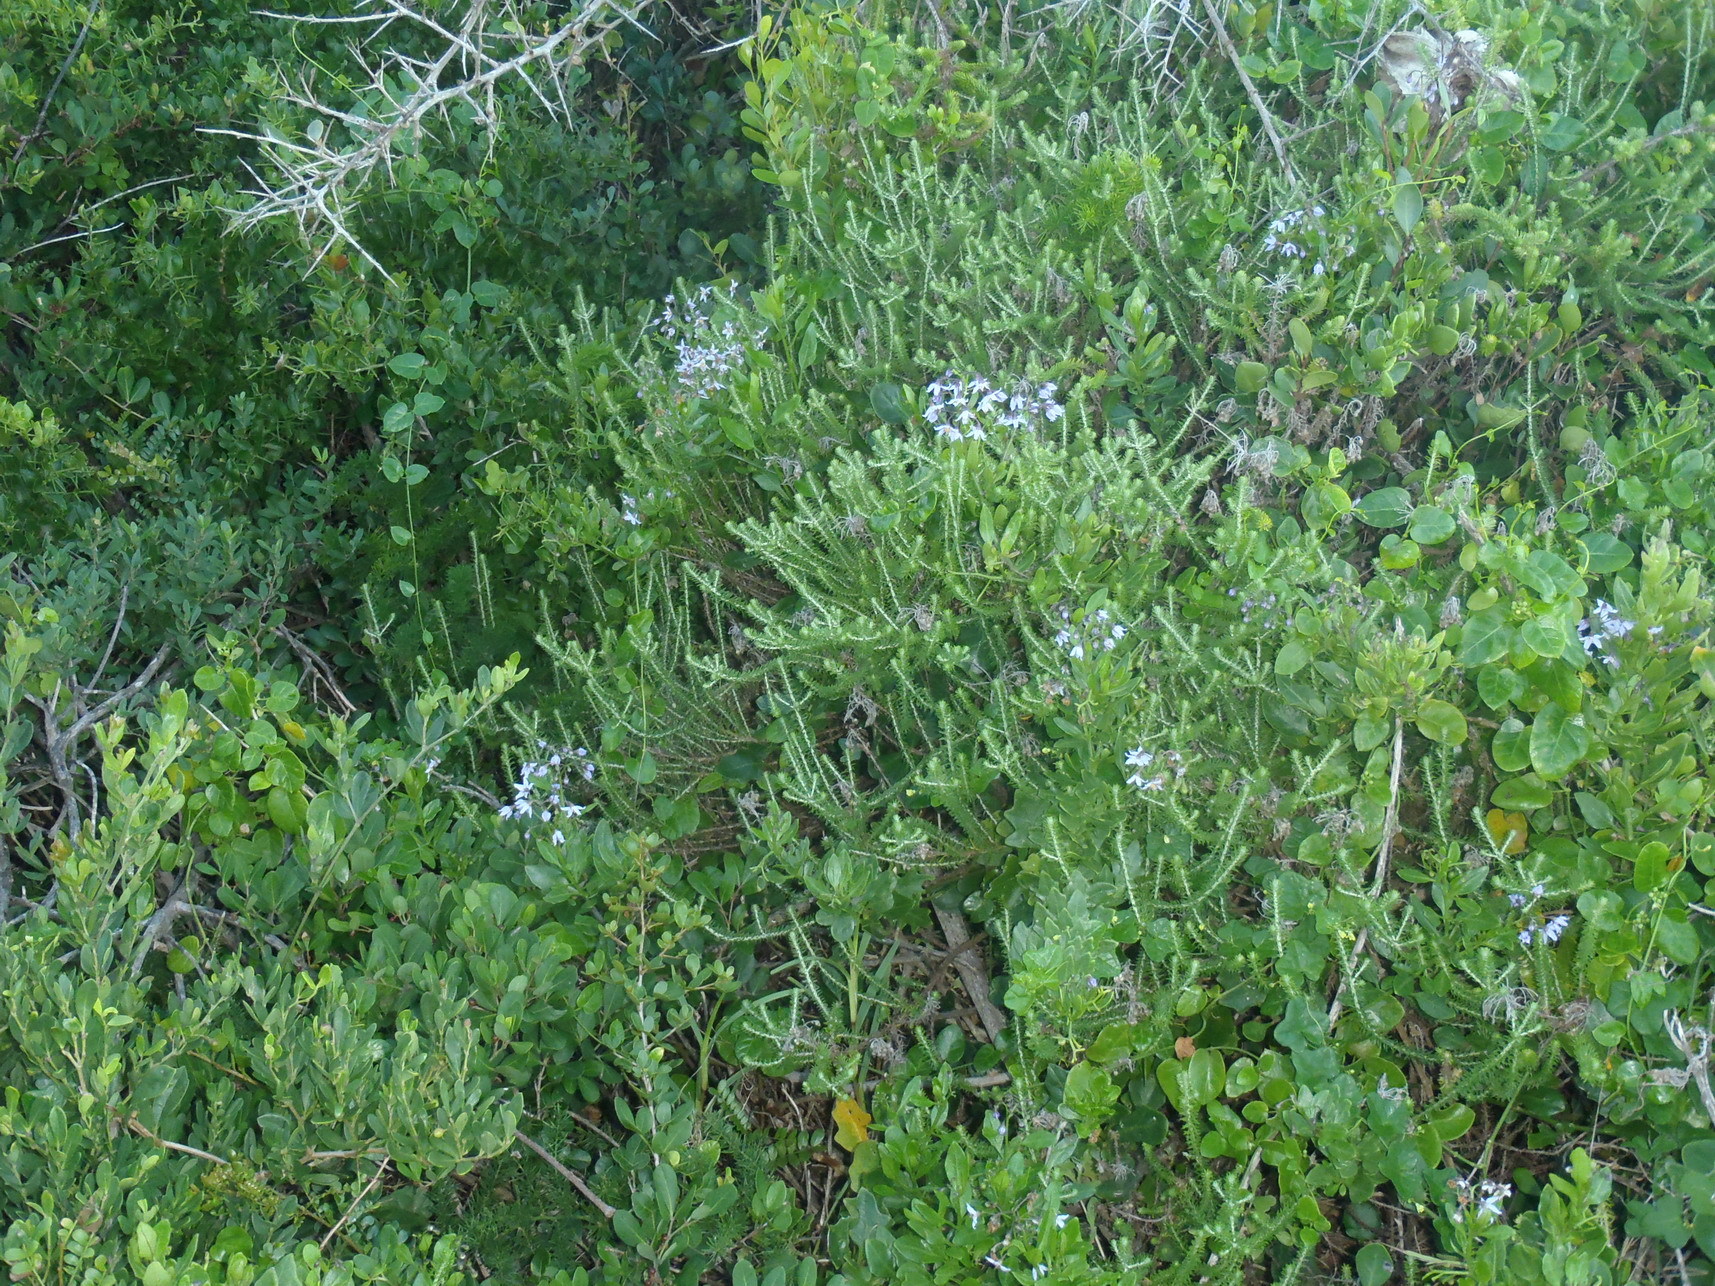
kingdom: Plantae
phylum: Tracheophyta
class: Magnoliopsida
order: Solanales
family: Solanaceae
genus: Solanum
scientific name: Solanum africanum
